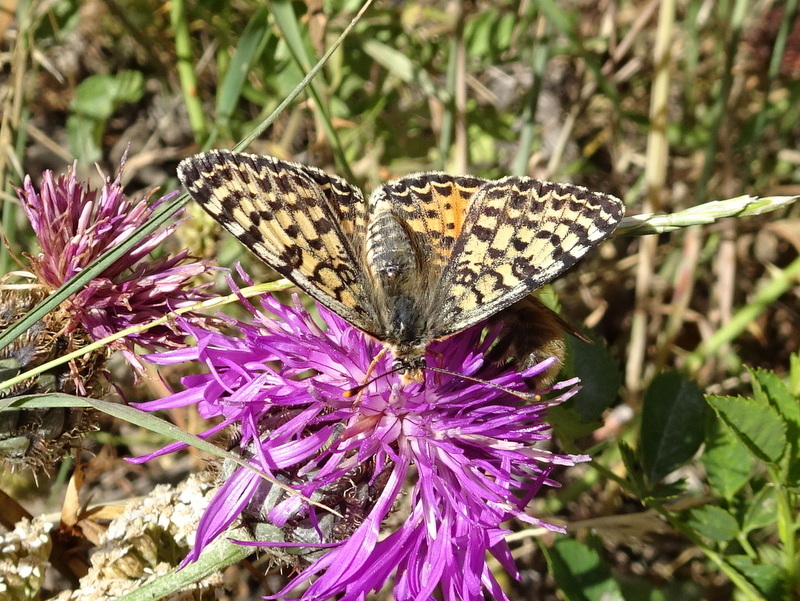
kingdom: Animalia
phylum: Arthropoda
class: Insecta
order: Lepidoptera
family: Nymphalidae
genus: Melitaea
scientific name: Melitaea didyma
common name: Spotted fritillary
